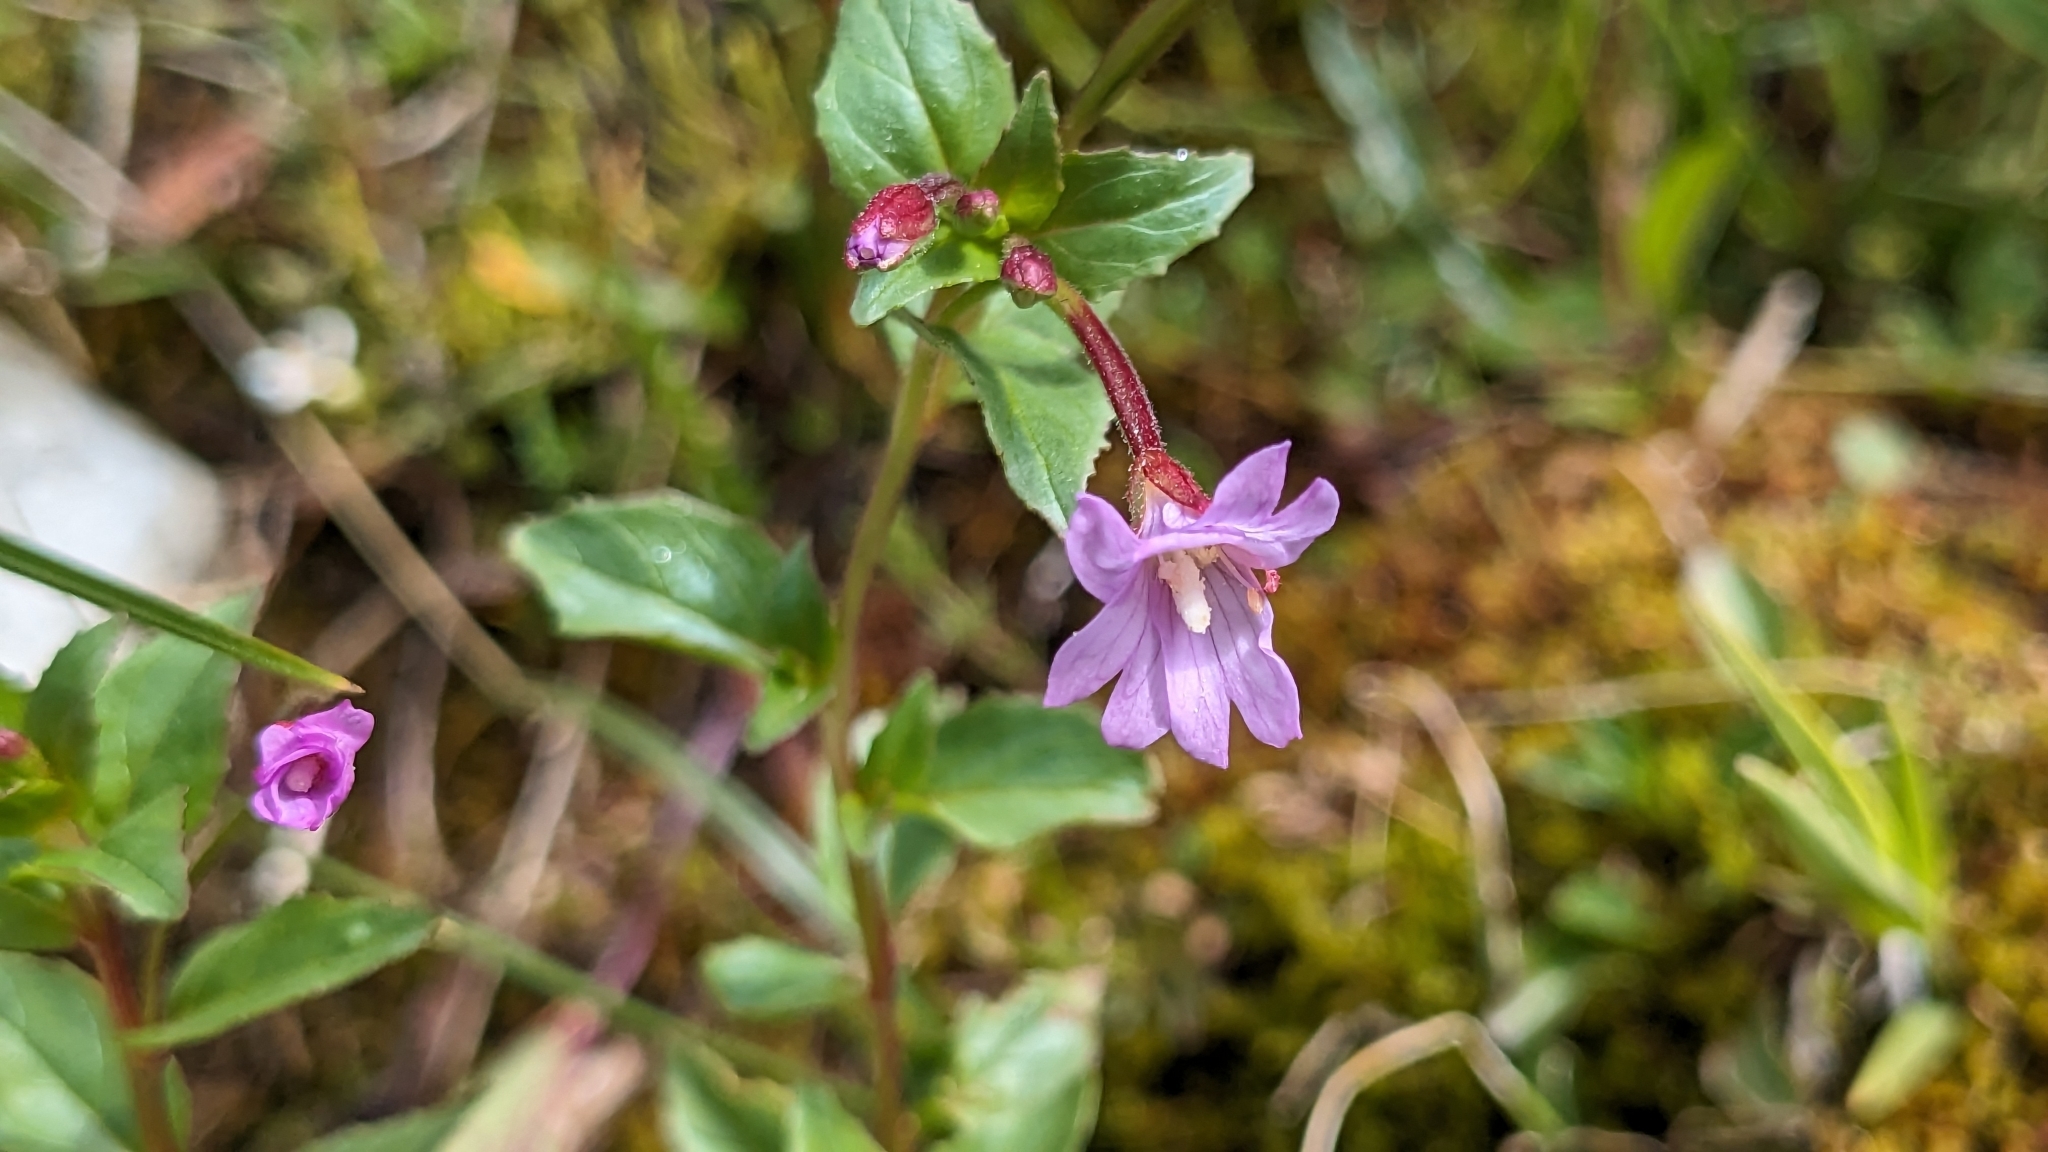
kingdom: Plantae
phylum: Tracheophyta
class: Magnoliopsida
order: Myrtales
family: Onagraceae
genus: Epilobium
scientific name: Epilobium alsinifolium
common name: Chickweed willowherb
